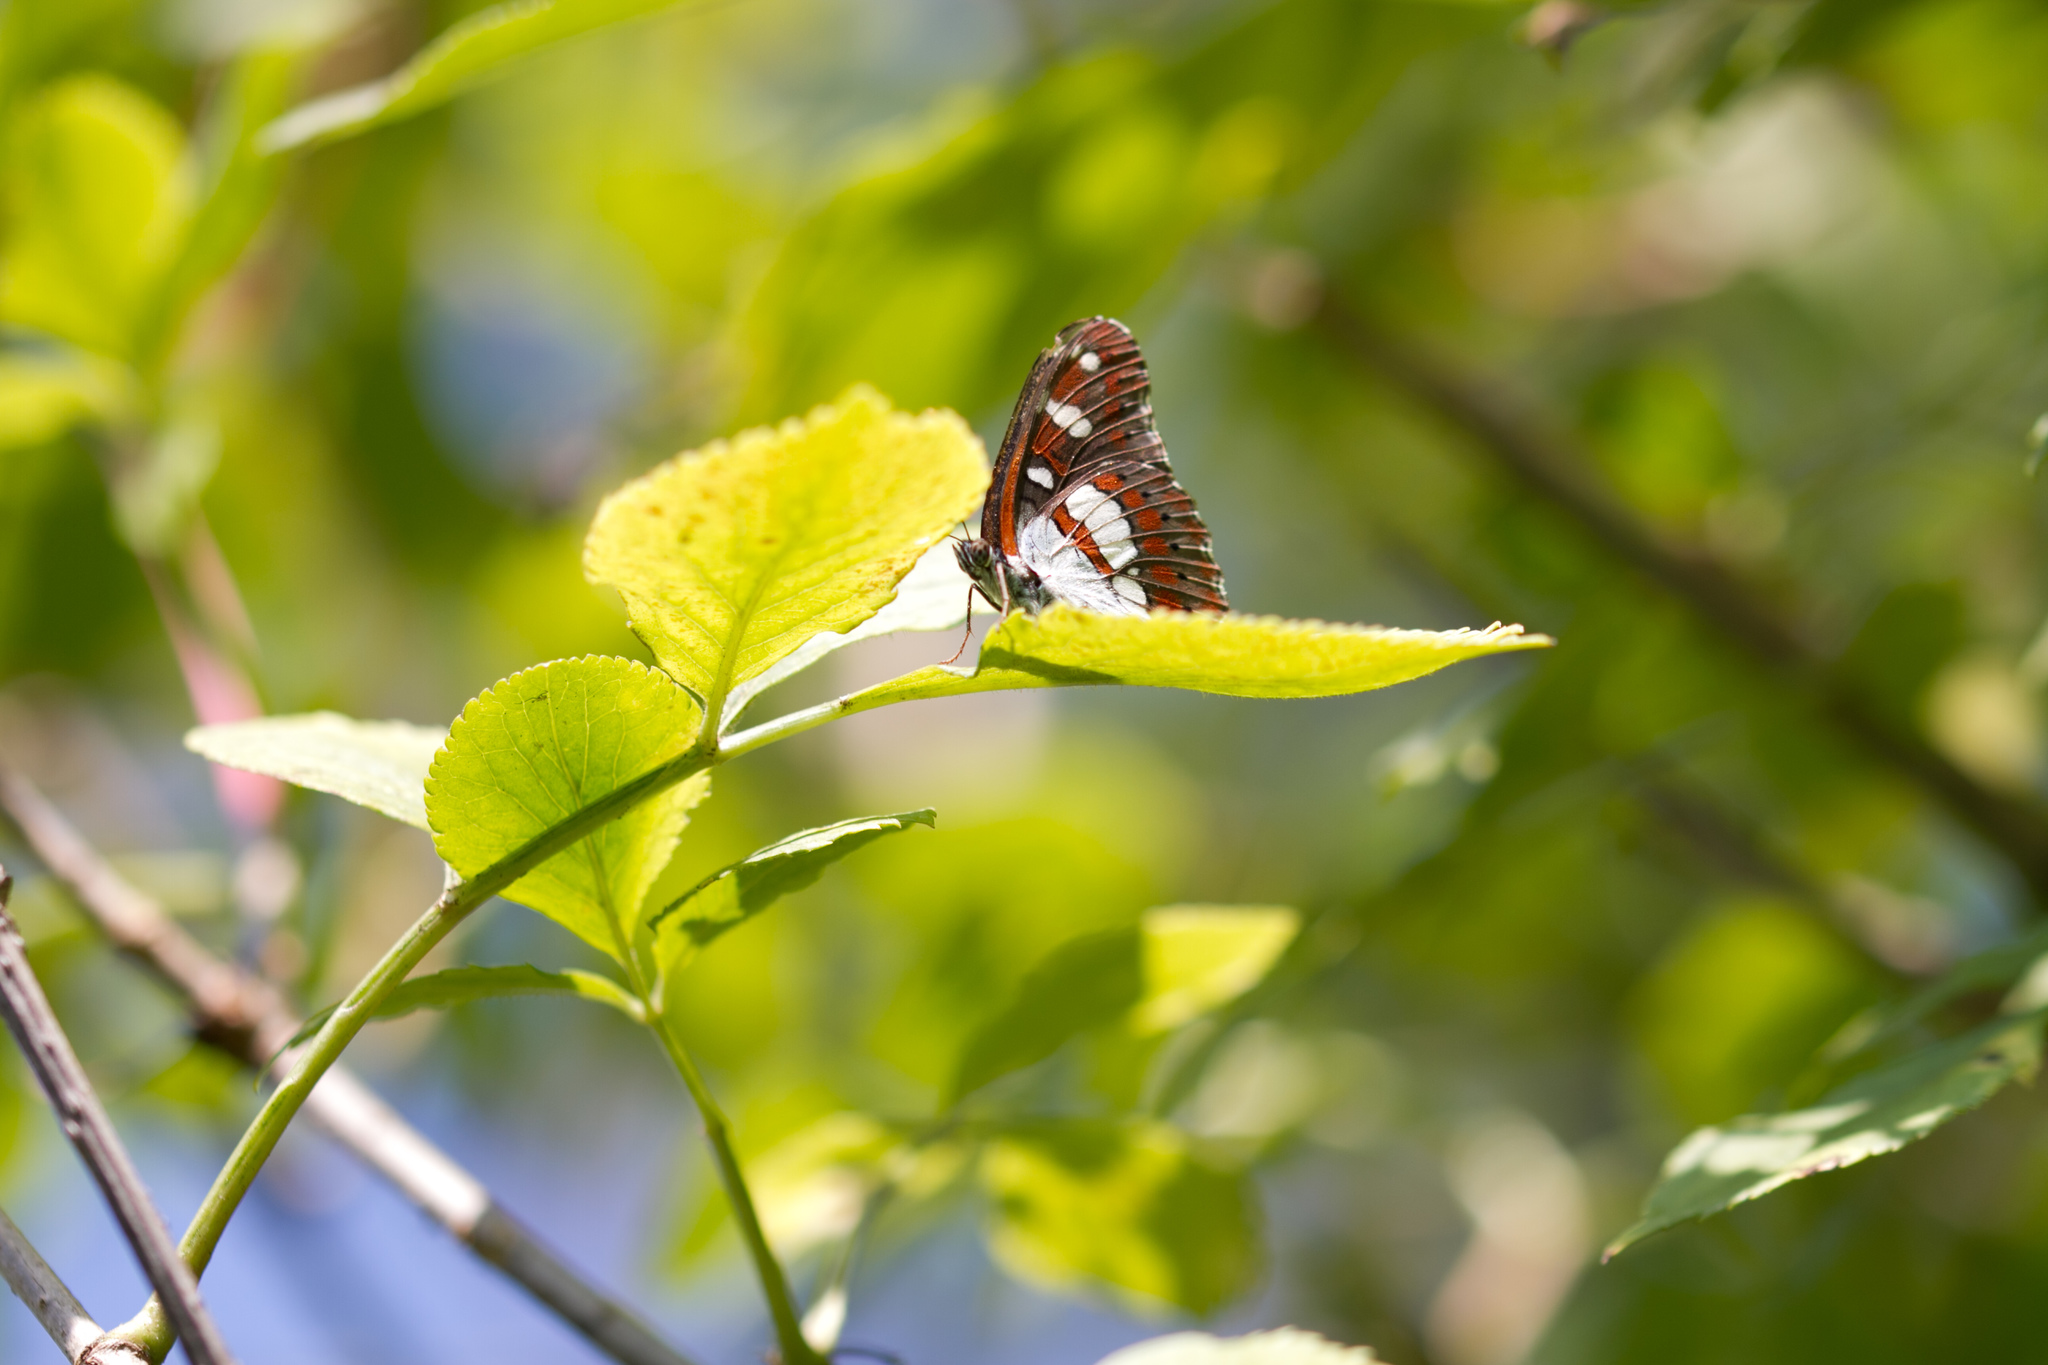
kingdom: Animalia
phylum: Arthropoda
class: Insecta
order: Lepidoptera
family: Nymphalidae
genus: Limenitis
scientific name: Limenitis reducta
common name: Southern white admiral
